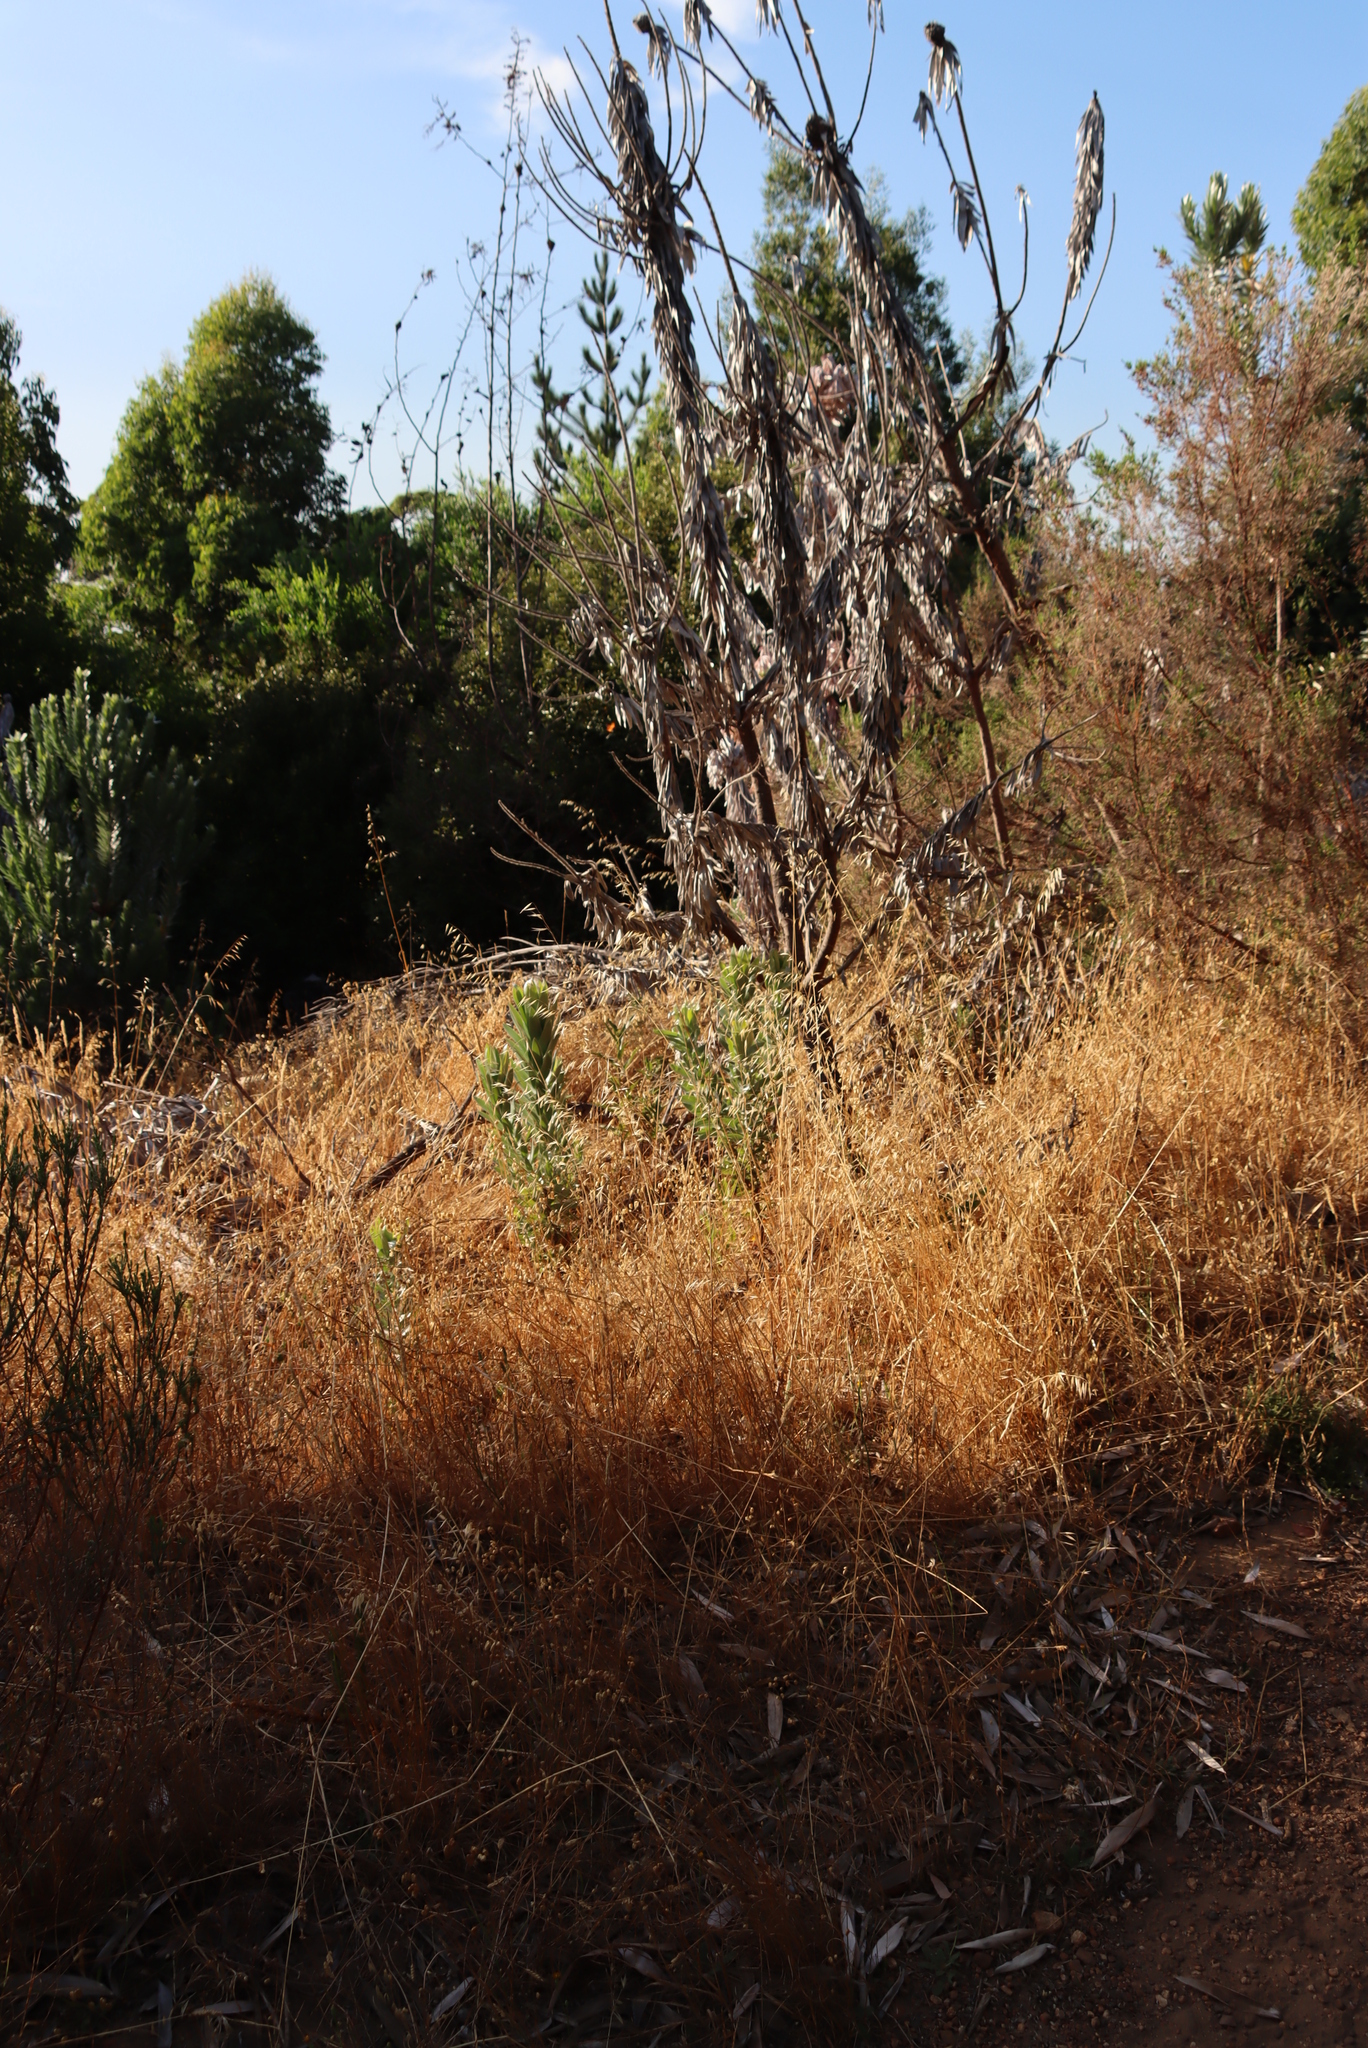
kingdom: Plantae
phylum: Tracheophyta
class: Magnoliopsida
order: Proteales
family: Proteaceae
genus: Leucadendron
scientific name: Leucadendron argenteum
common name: Cape silver tree
